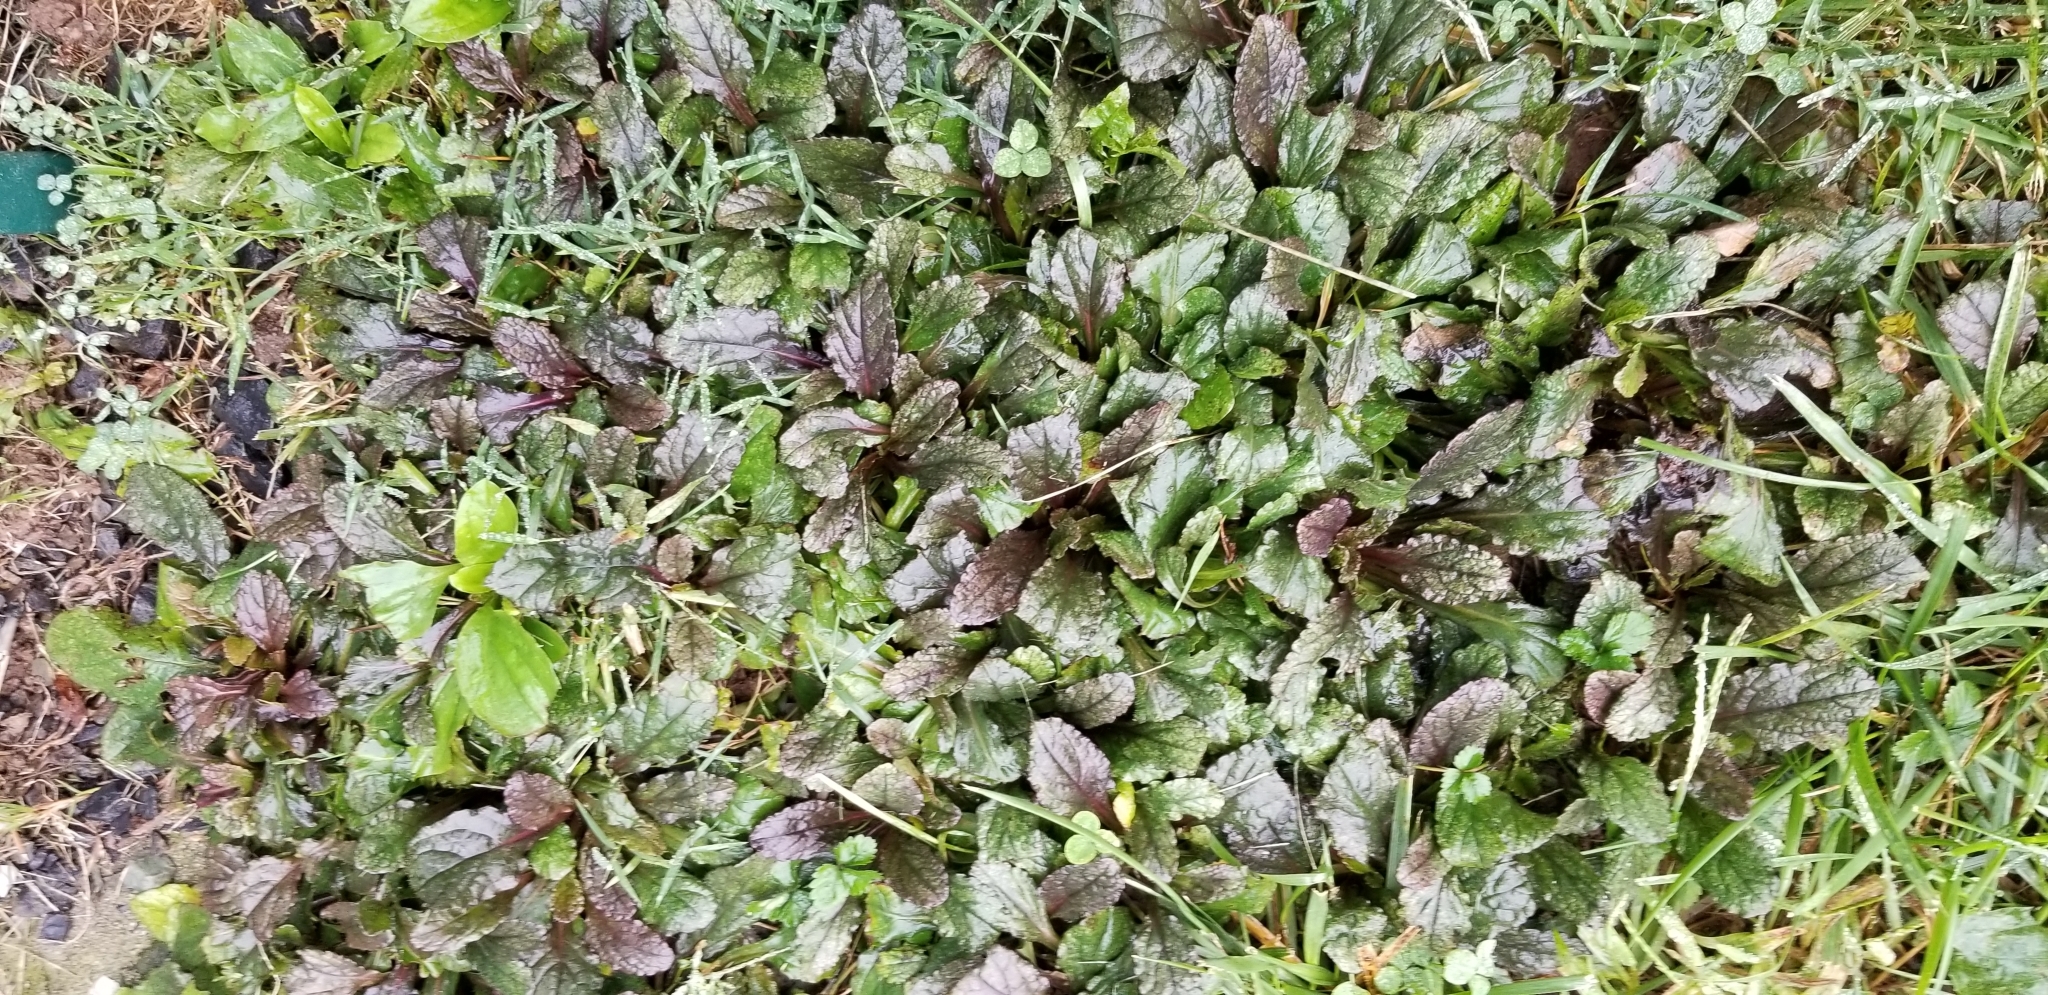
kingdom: Plantae
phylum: Tracheophyta
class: Magnoliopsida
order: Lamiales
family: Lamiaceae
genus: Ajuga
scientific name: Ajuga reptans
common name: Bugle
